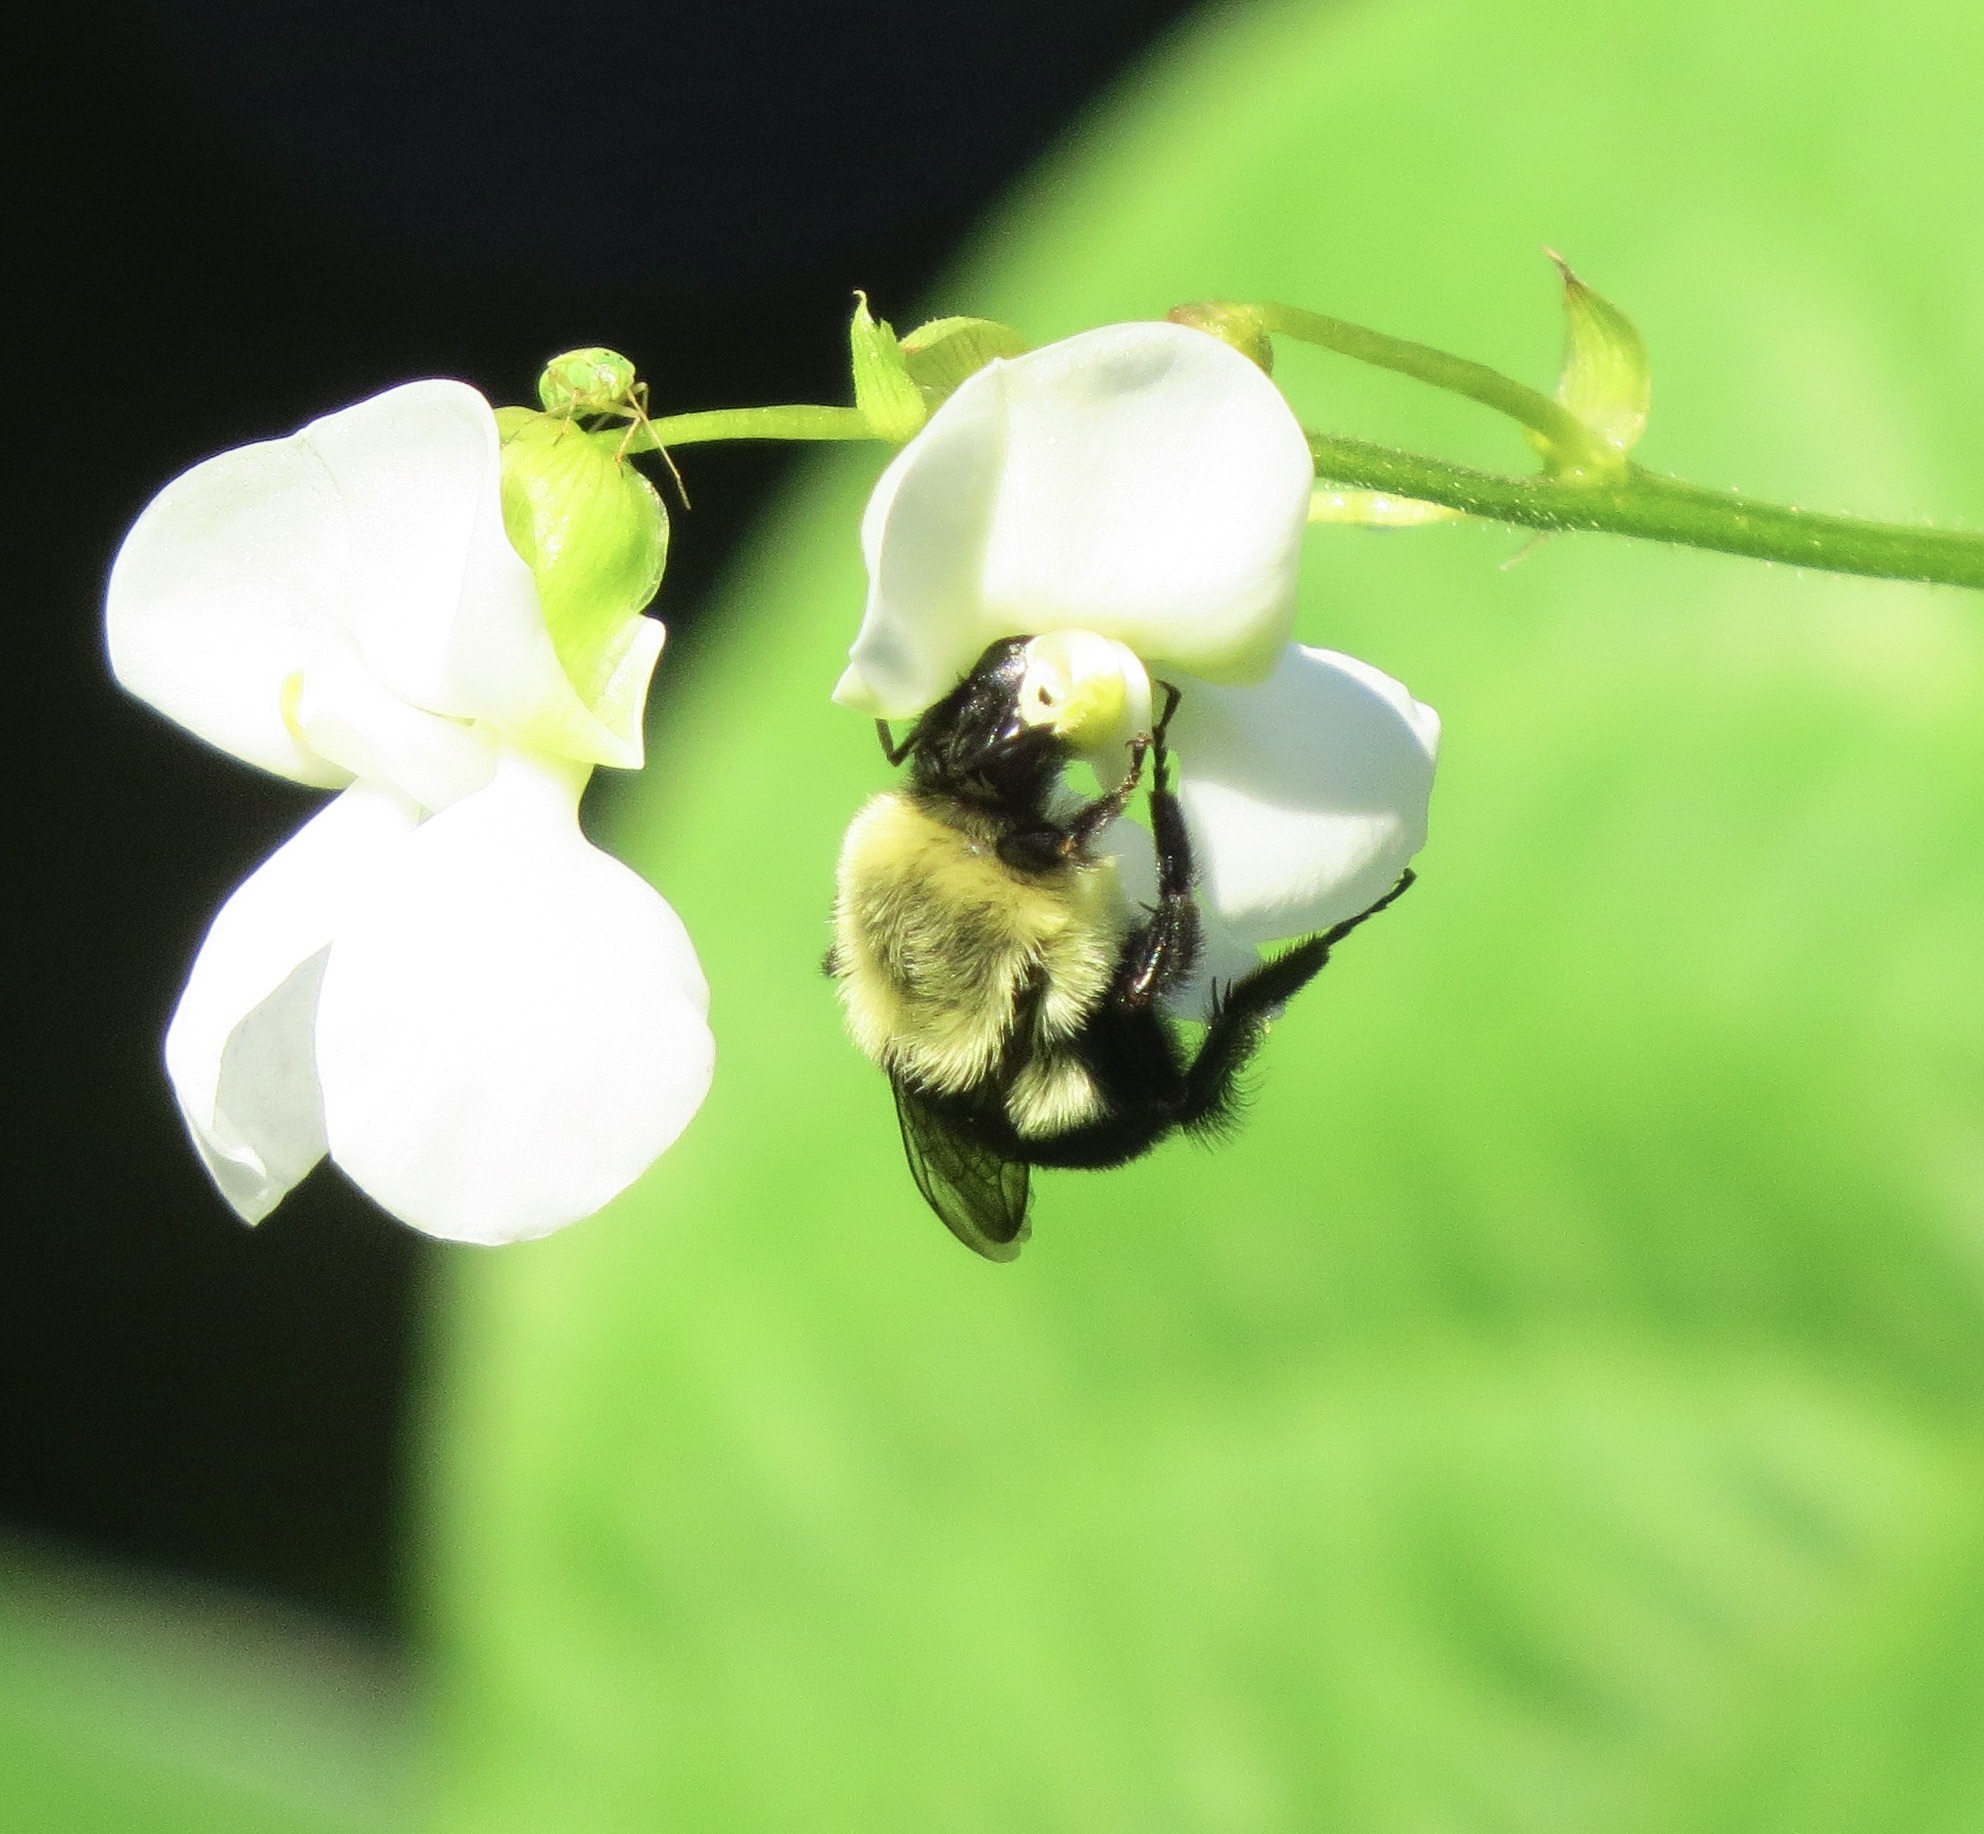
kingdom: Animalia
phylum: Arthropoda
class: Insecta
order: Hymenoptera
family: Apidae
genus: Bombus
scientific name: Bombus impatiens
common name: Common eastern bumble bee
